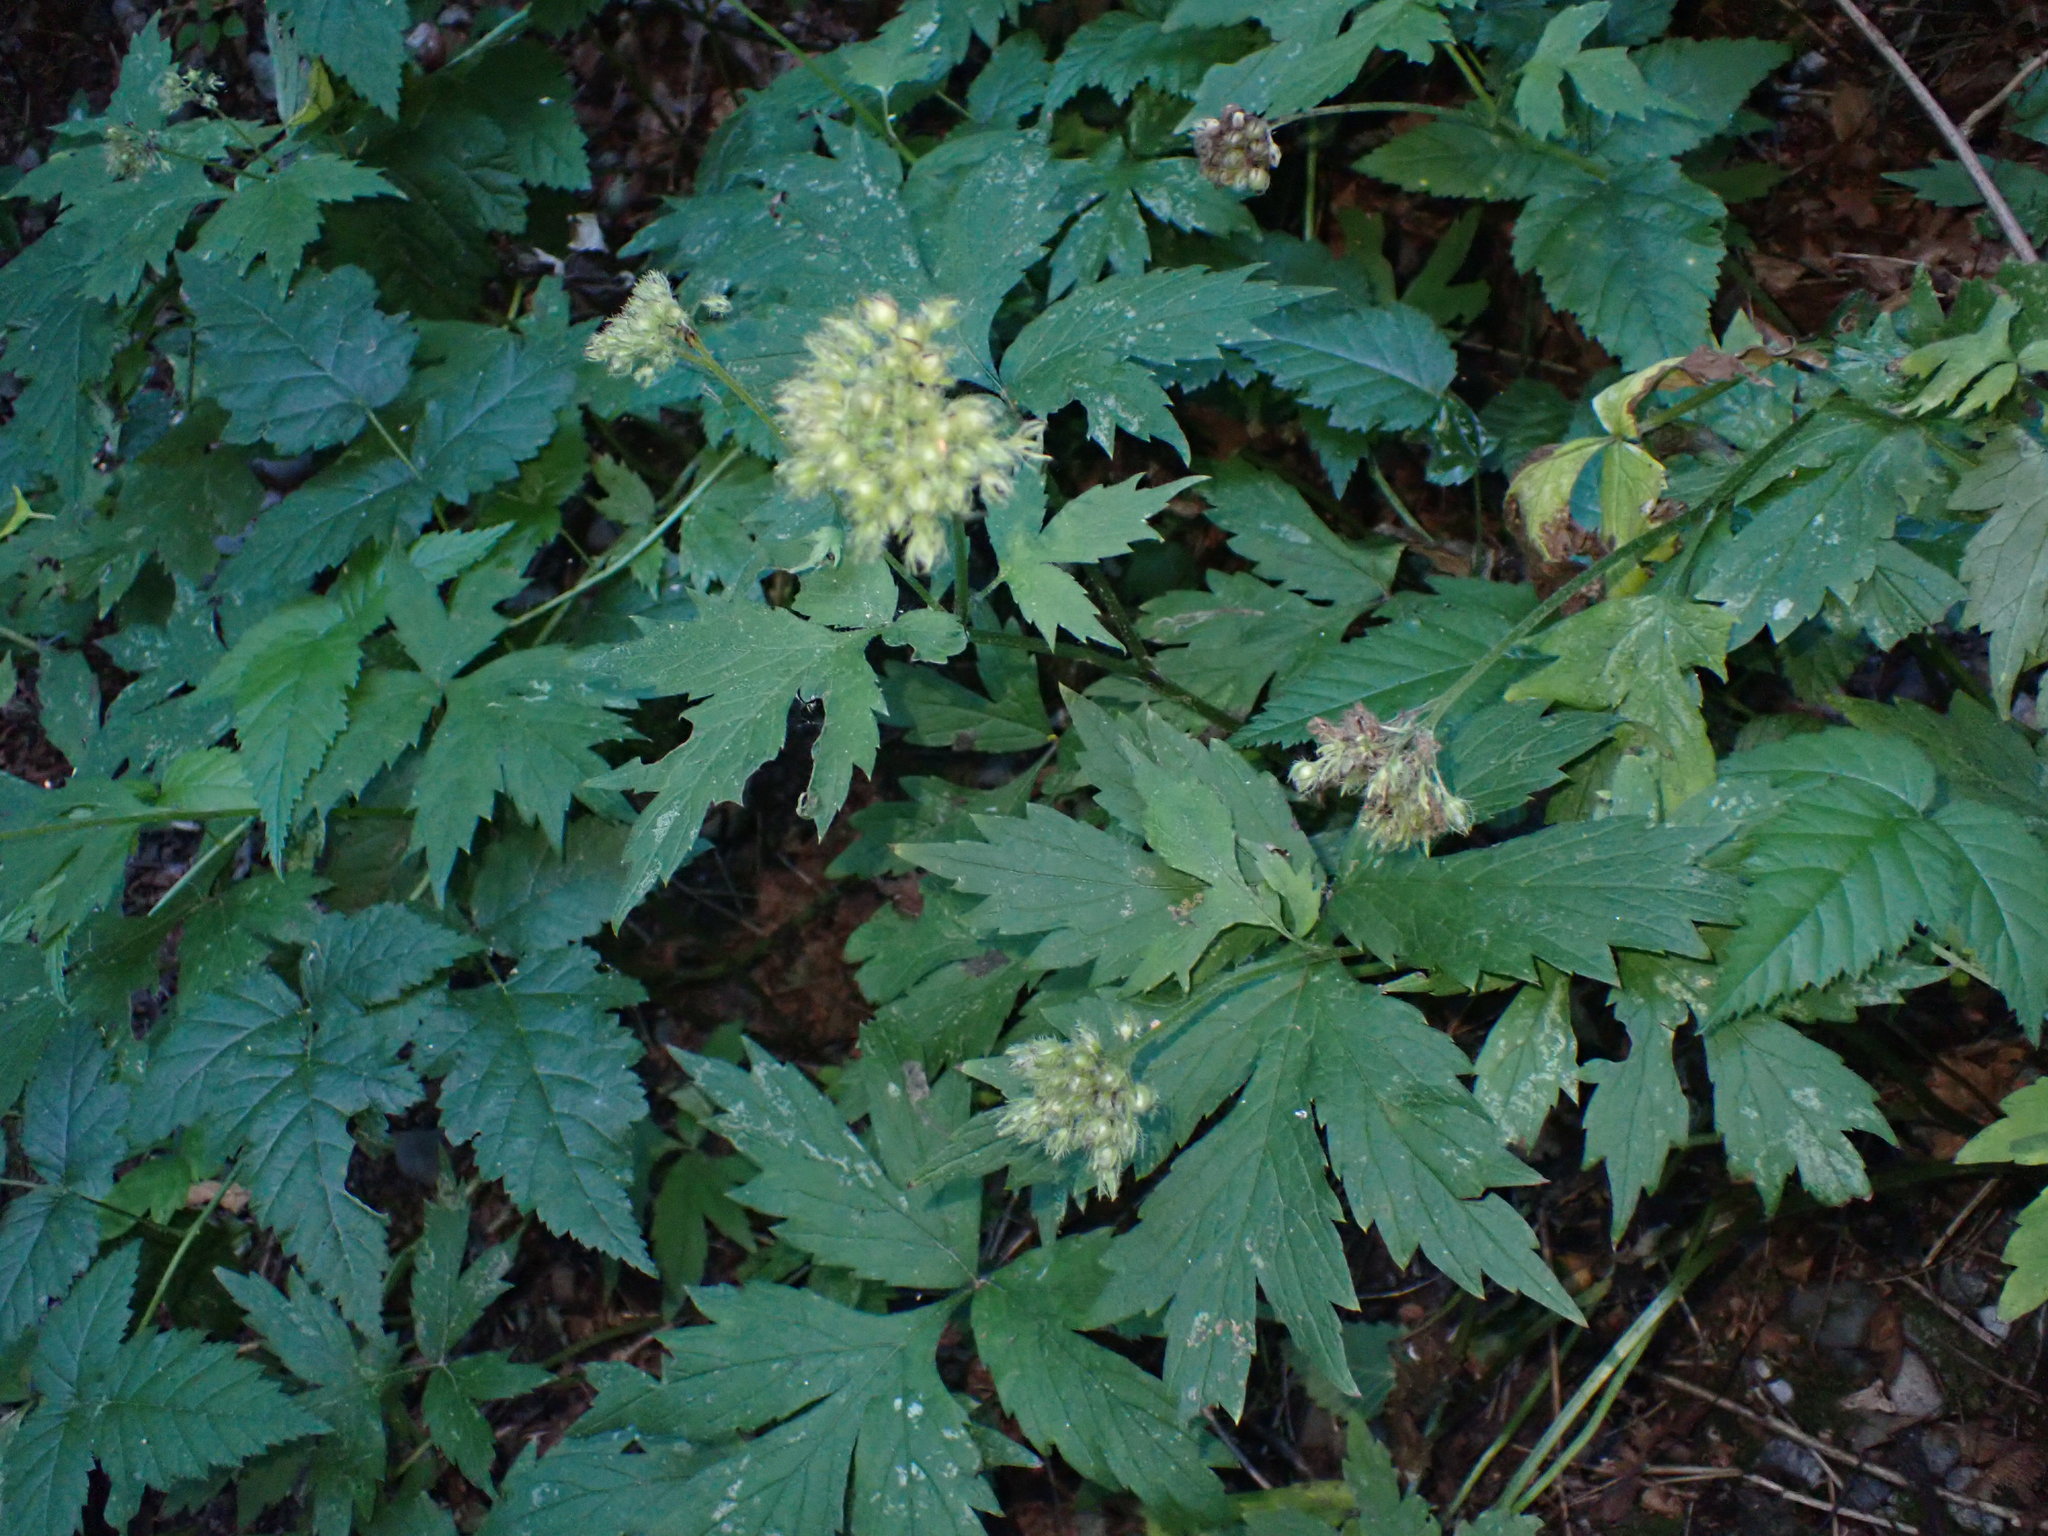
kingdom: Plantae
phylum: Tracheophyta
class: Magnoliopsida
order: Boraginales
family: Hydrophyllaceae
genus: Hydrophyllum
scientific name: Hydrophyllum tenuipes
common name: Pacific waterleaf
